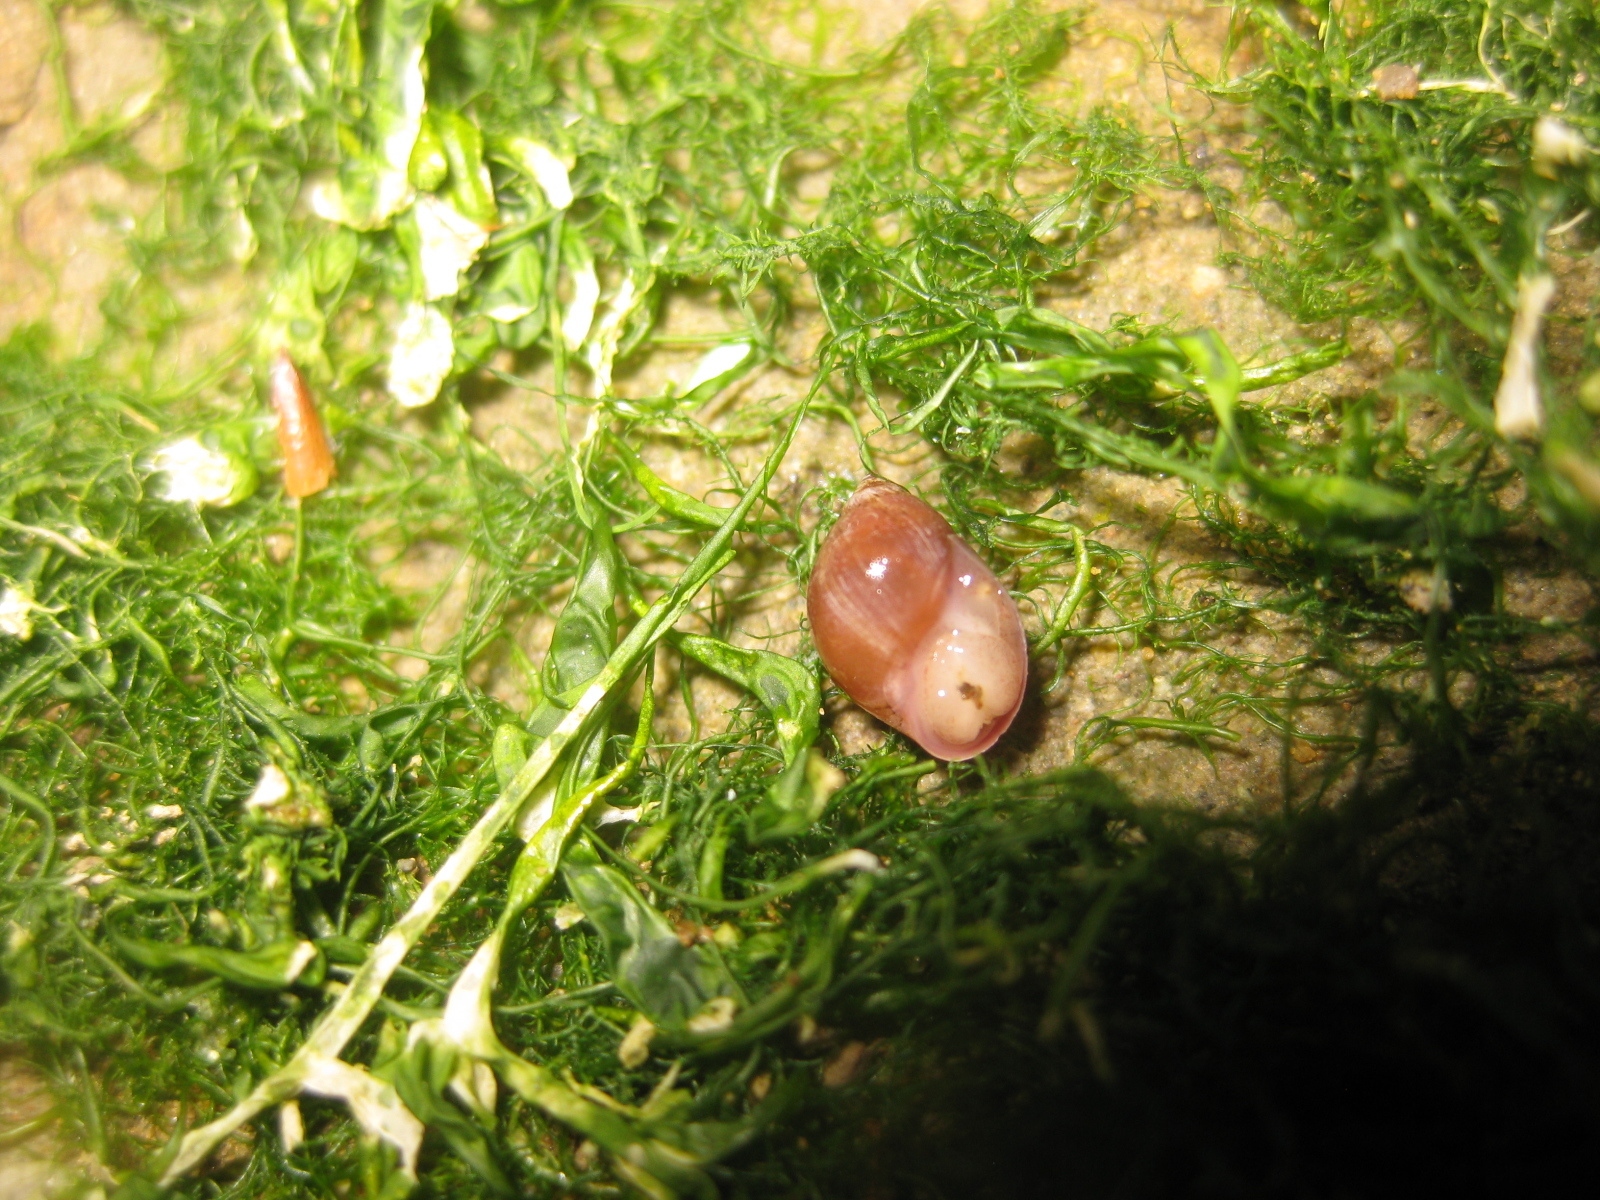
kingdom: Animalia
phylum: Mollusca
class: Gastropoda
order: Ellobiida
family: Ellobiidae
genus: Marinula
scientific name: Marinula filholi
